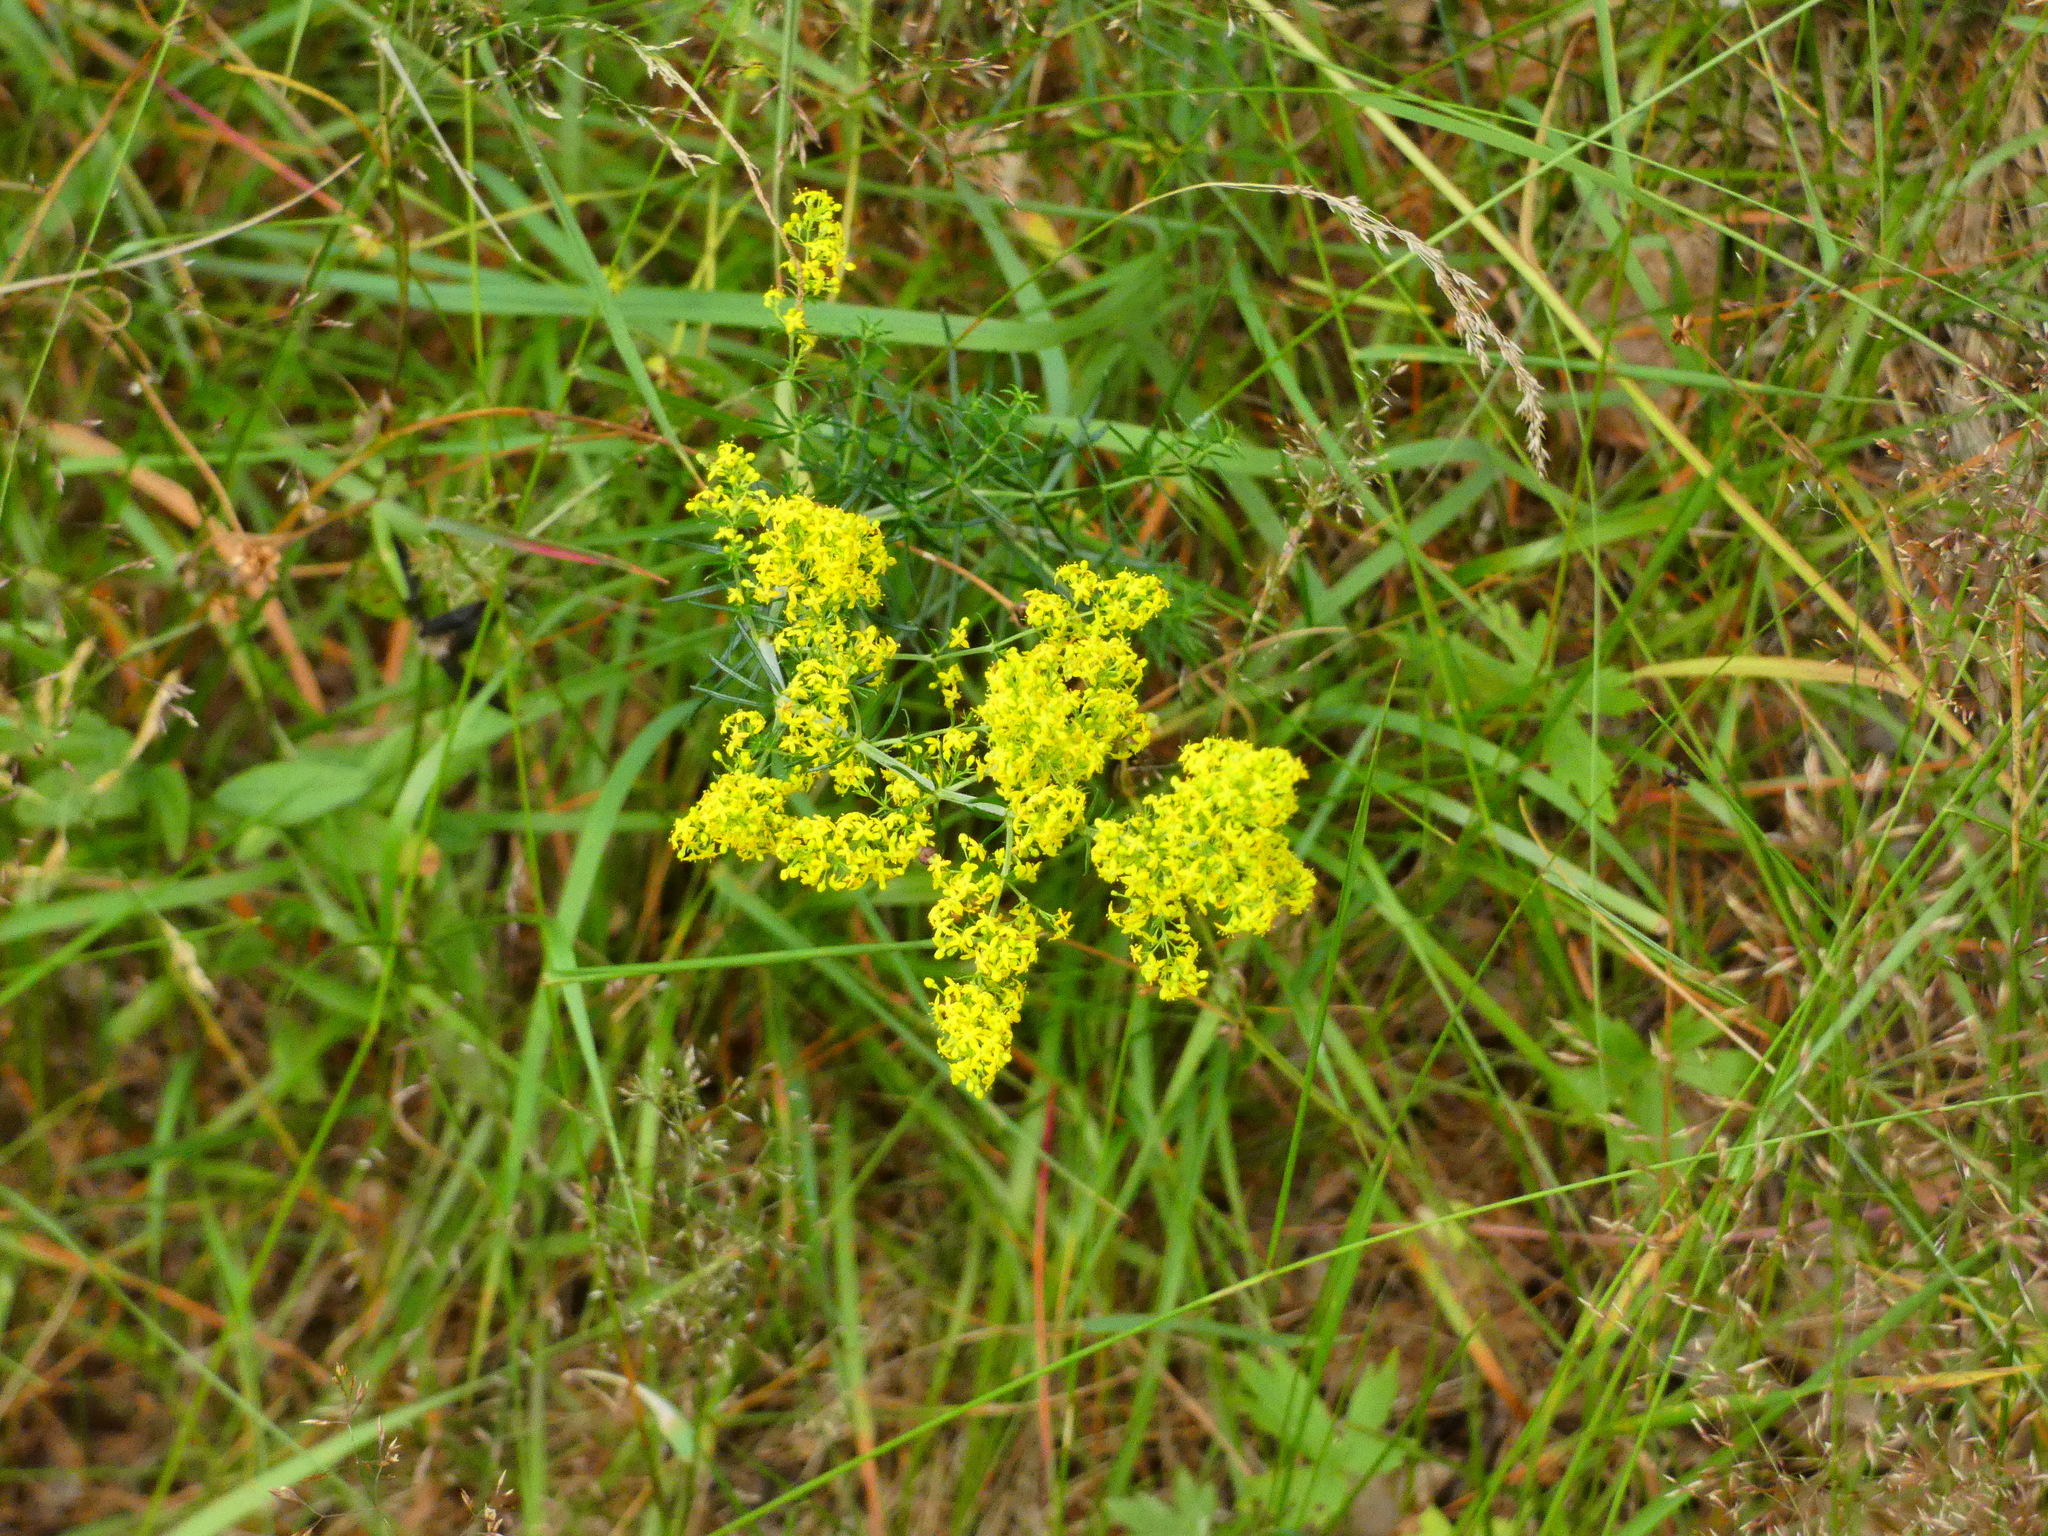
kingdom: Plantae
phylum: Tracheophyta
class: Magnoliopsida
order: Gentianales
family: Rubiaceae
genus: Galium
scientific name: Galium verum
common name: Lady's bedstraw
